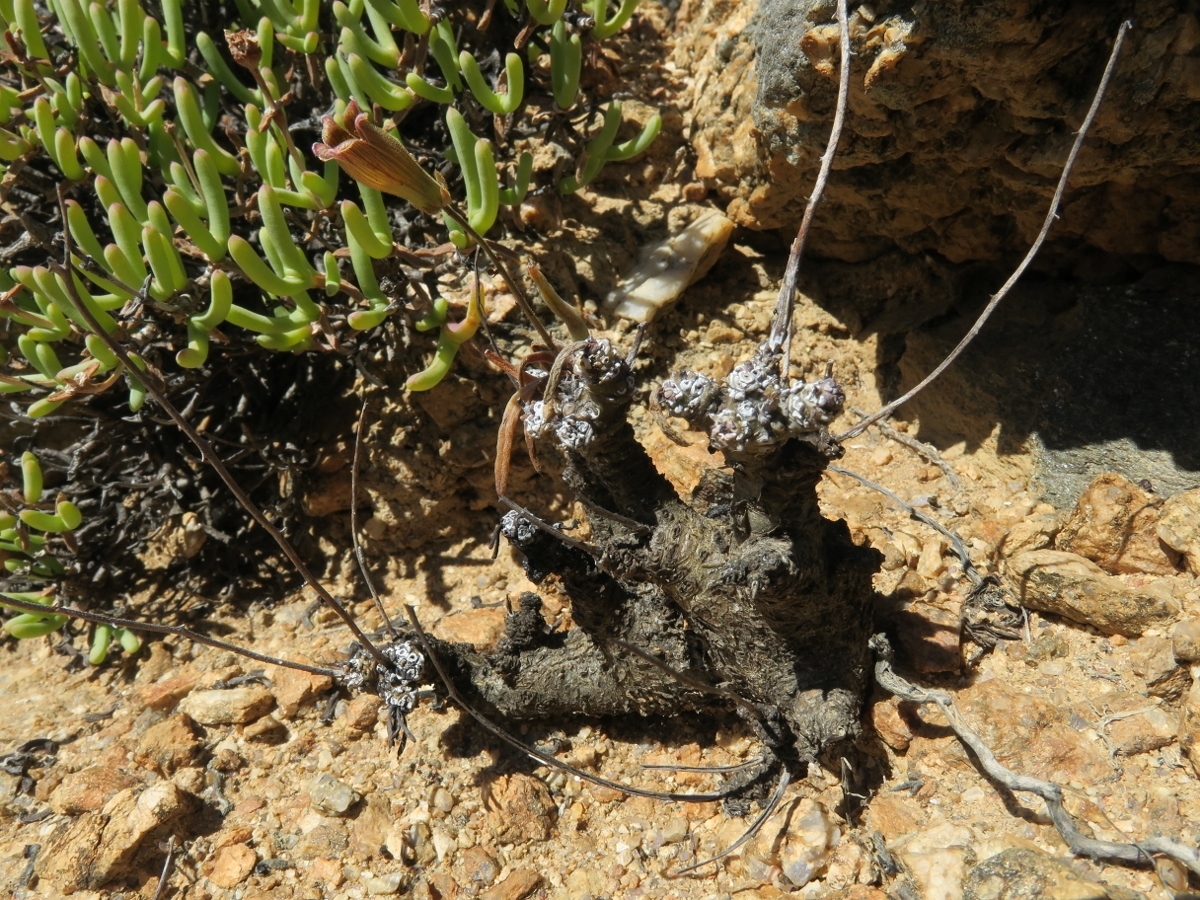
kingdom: Plantae
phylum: Tracheophyta
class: Magnoliopsida
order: Saxifragales
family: Crassulaceae
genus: Tylecodon
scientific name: Tylecodon pearsonii
